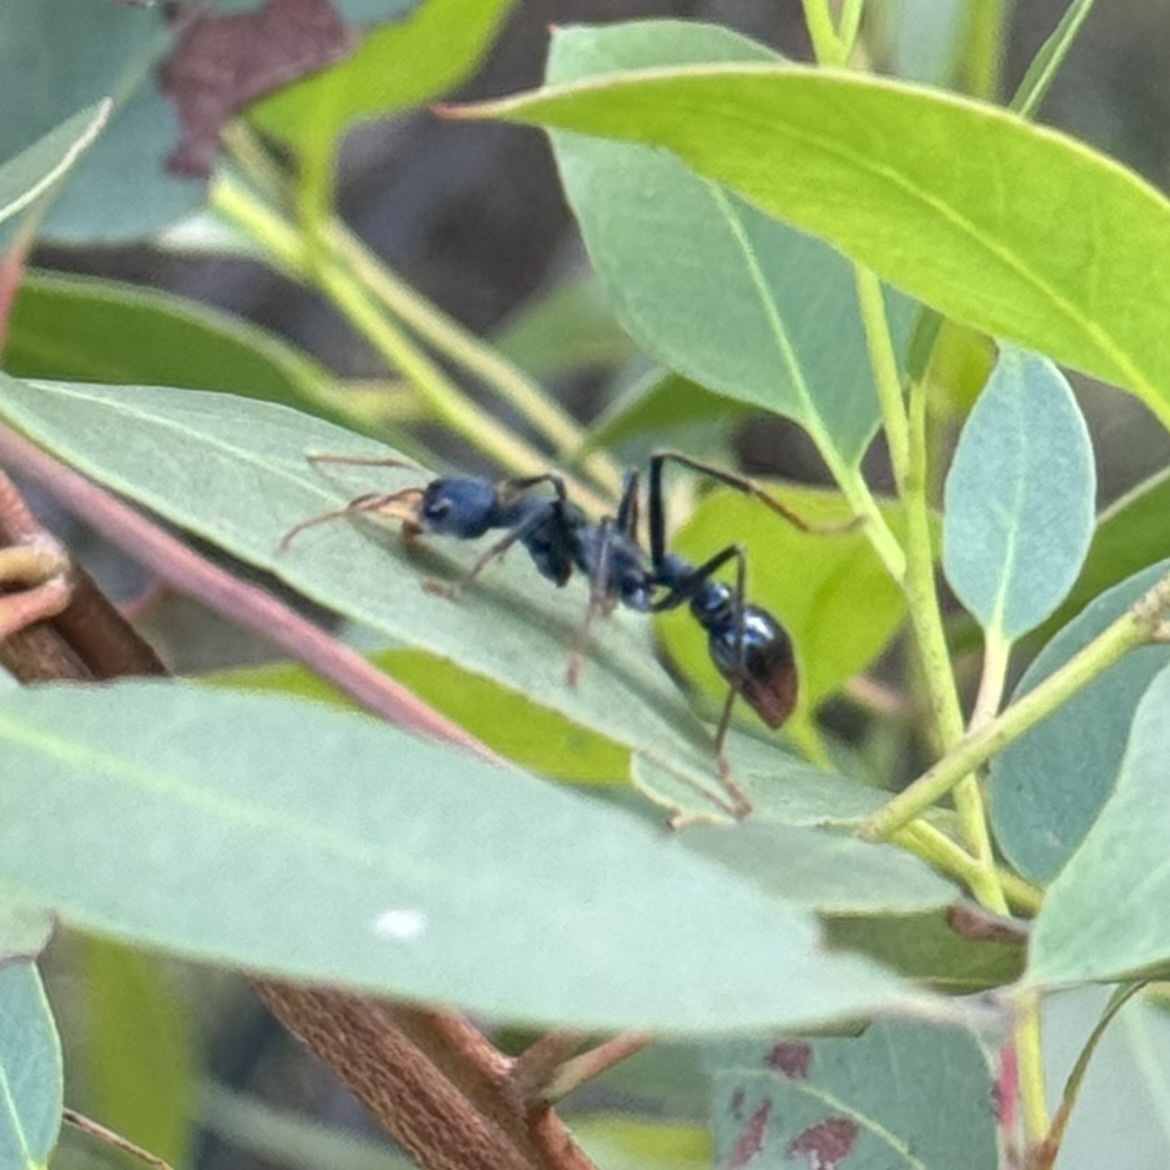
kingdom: Animalia
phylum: Arthropoda
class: Insecta
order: Hymenoptera
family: Formicidae
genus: Myrmecia
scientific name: Myrmecia tarsata
